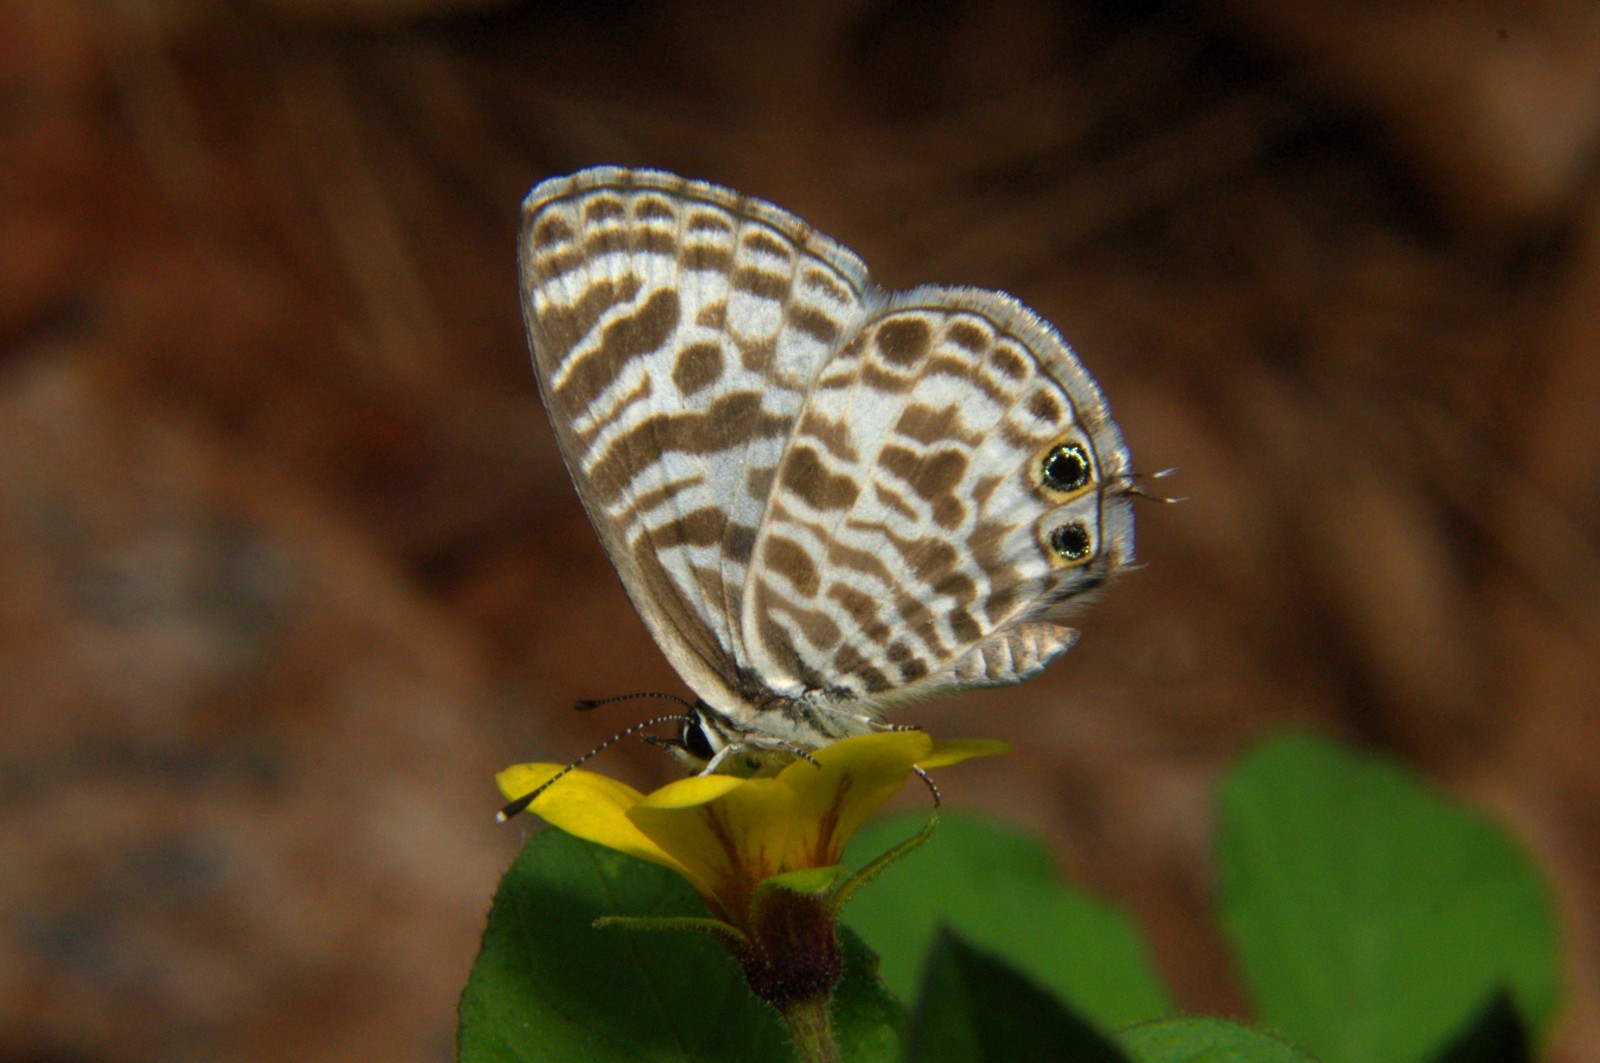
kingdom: Animalia
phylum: Arthropoda
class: Insecta
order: Lepidoptera
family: Lycaenidae
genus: Leptotes
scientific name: Leptotes plinius
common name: Zebra blue
